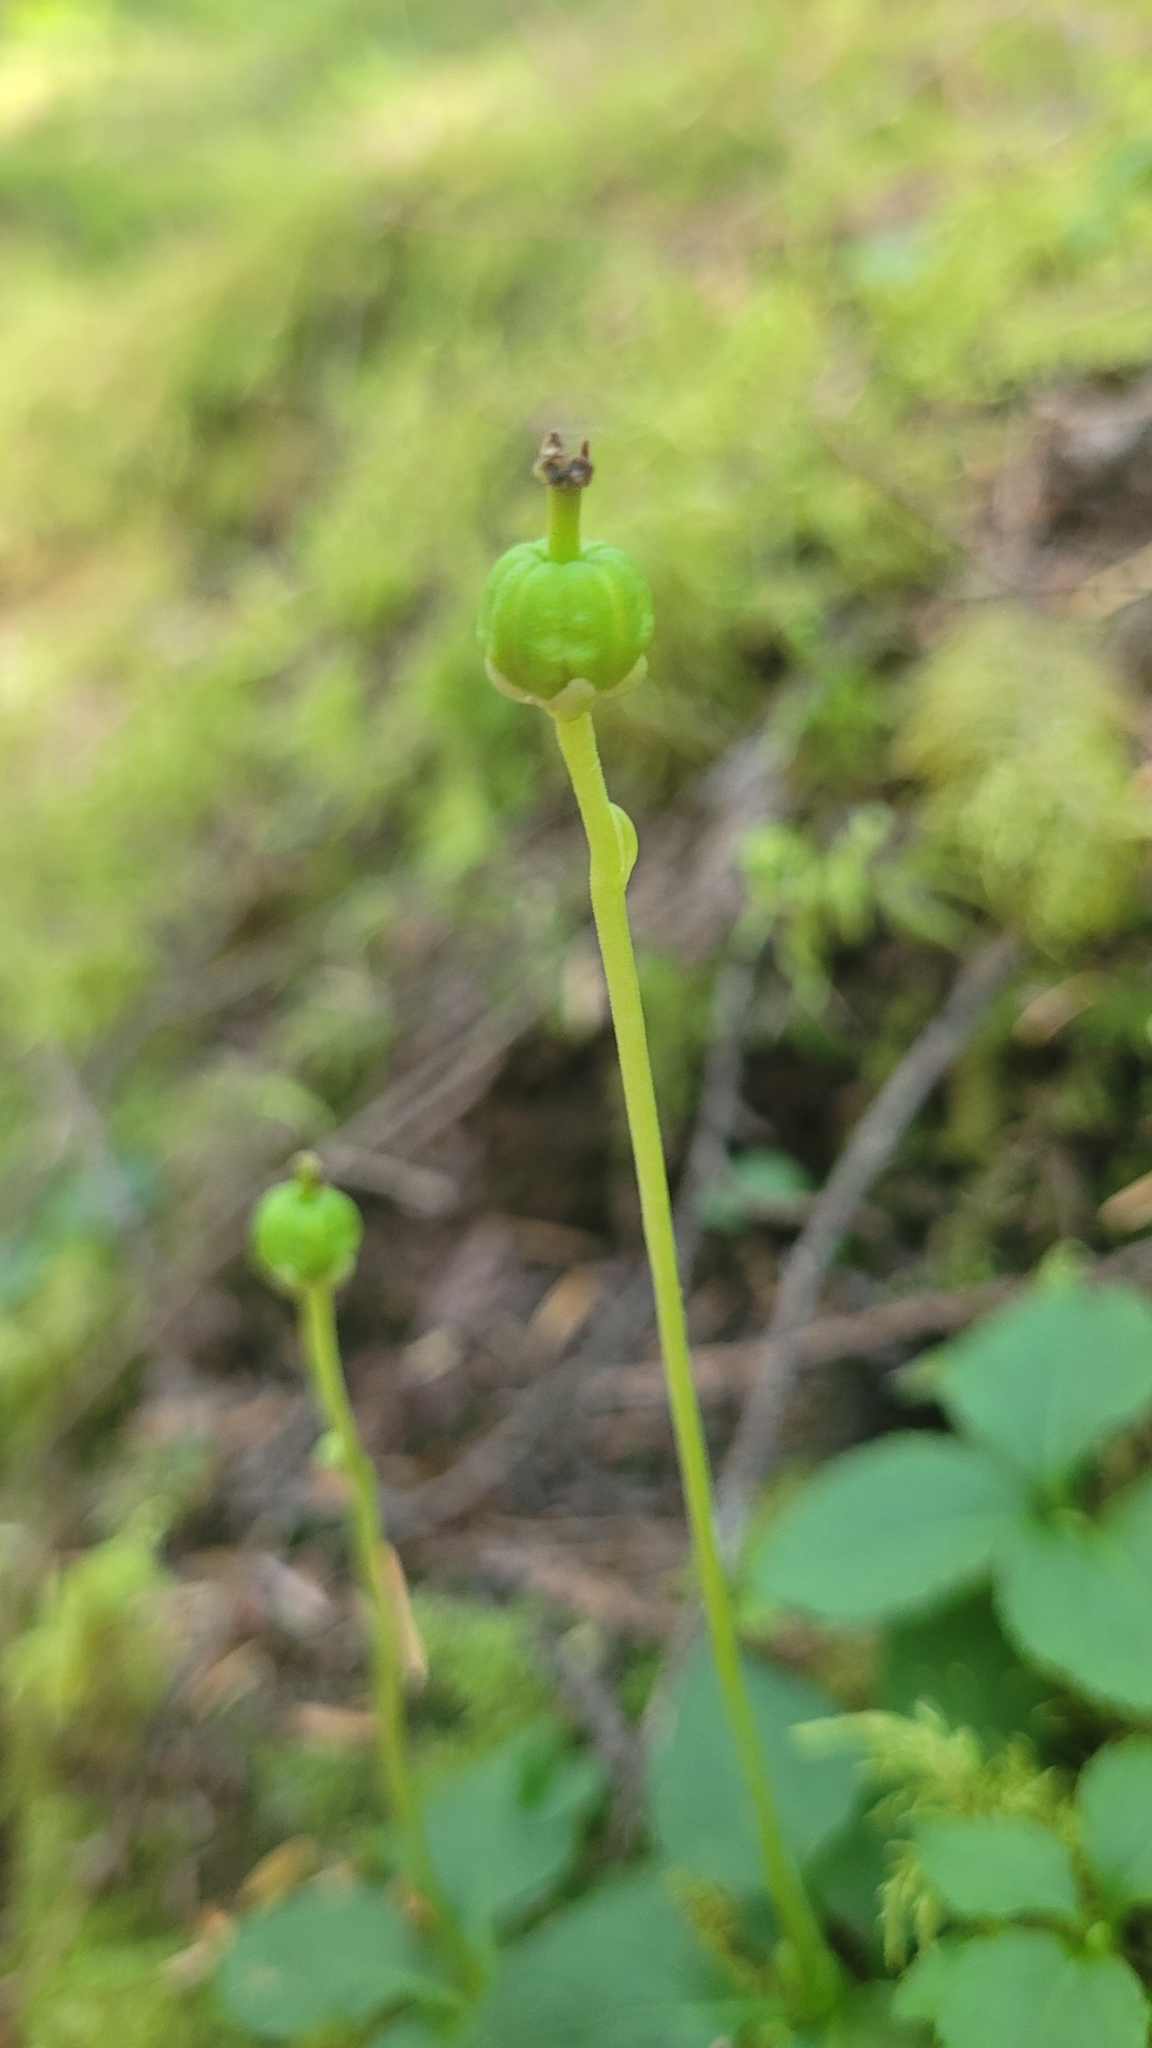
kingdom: Plantae
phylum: Tracheophyta
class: Magnoliopsida
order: Ericales
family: Ericaceae
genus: Moneses
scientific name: Moneses uniflora
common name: One-flowered wintergreen
